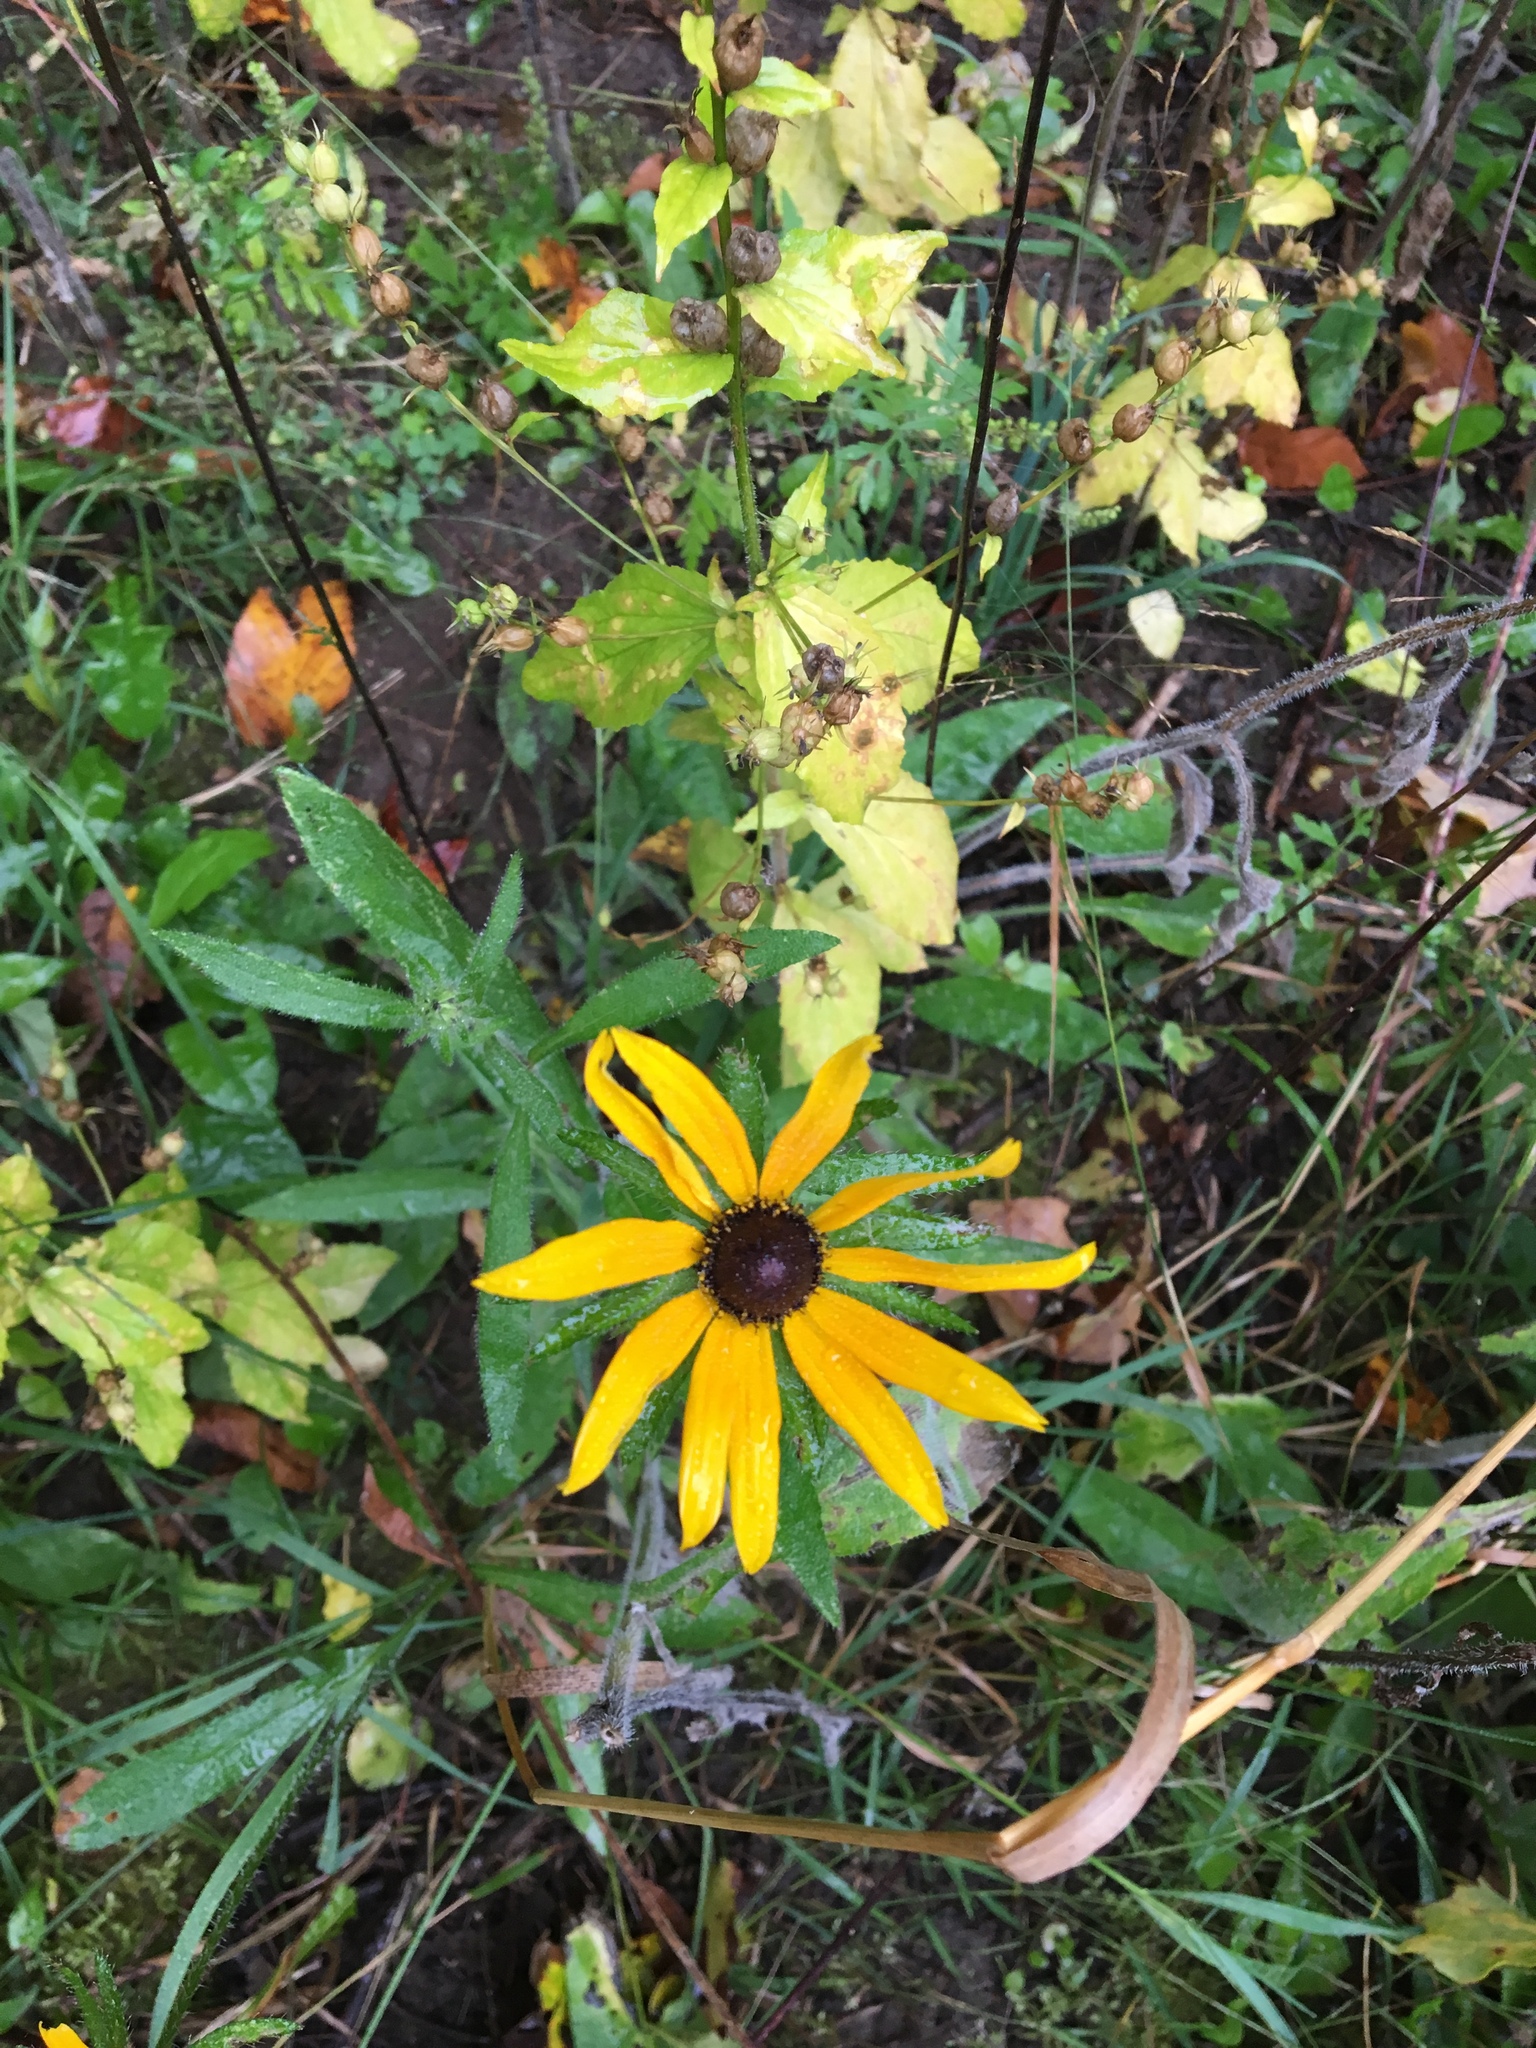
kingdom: Plantae
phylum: Tracheophyta
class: Magnoliopsida
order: Asterales
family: Asteraceae
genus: Rudbeckia
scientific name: Rudbeckia hirta
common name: Black-eyed-susan
